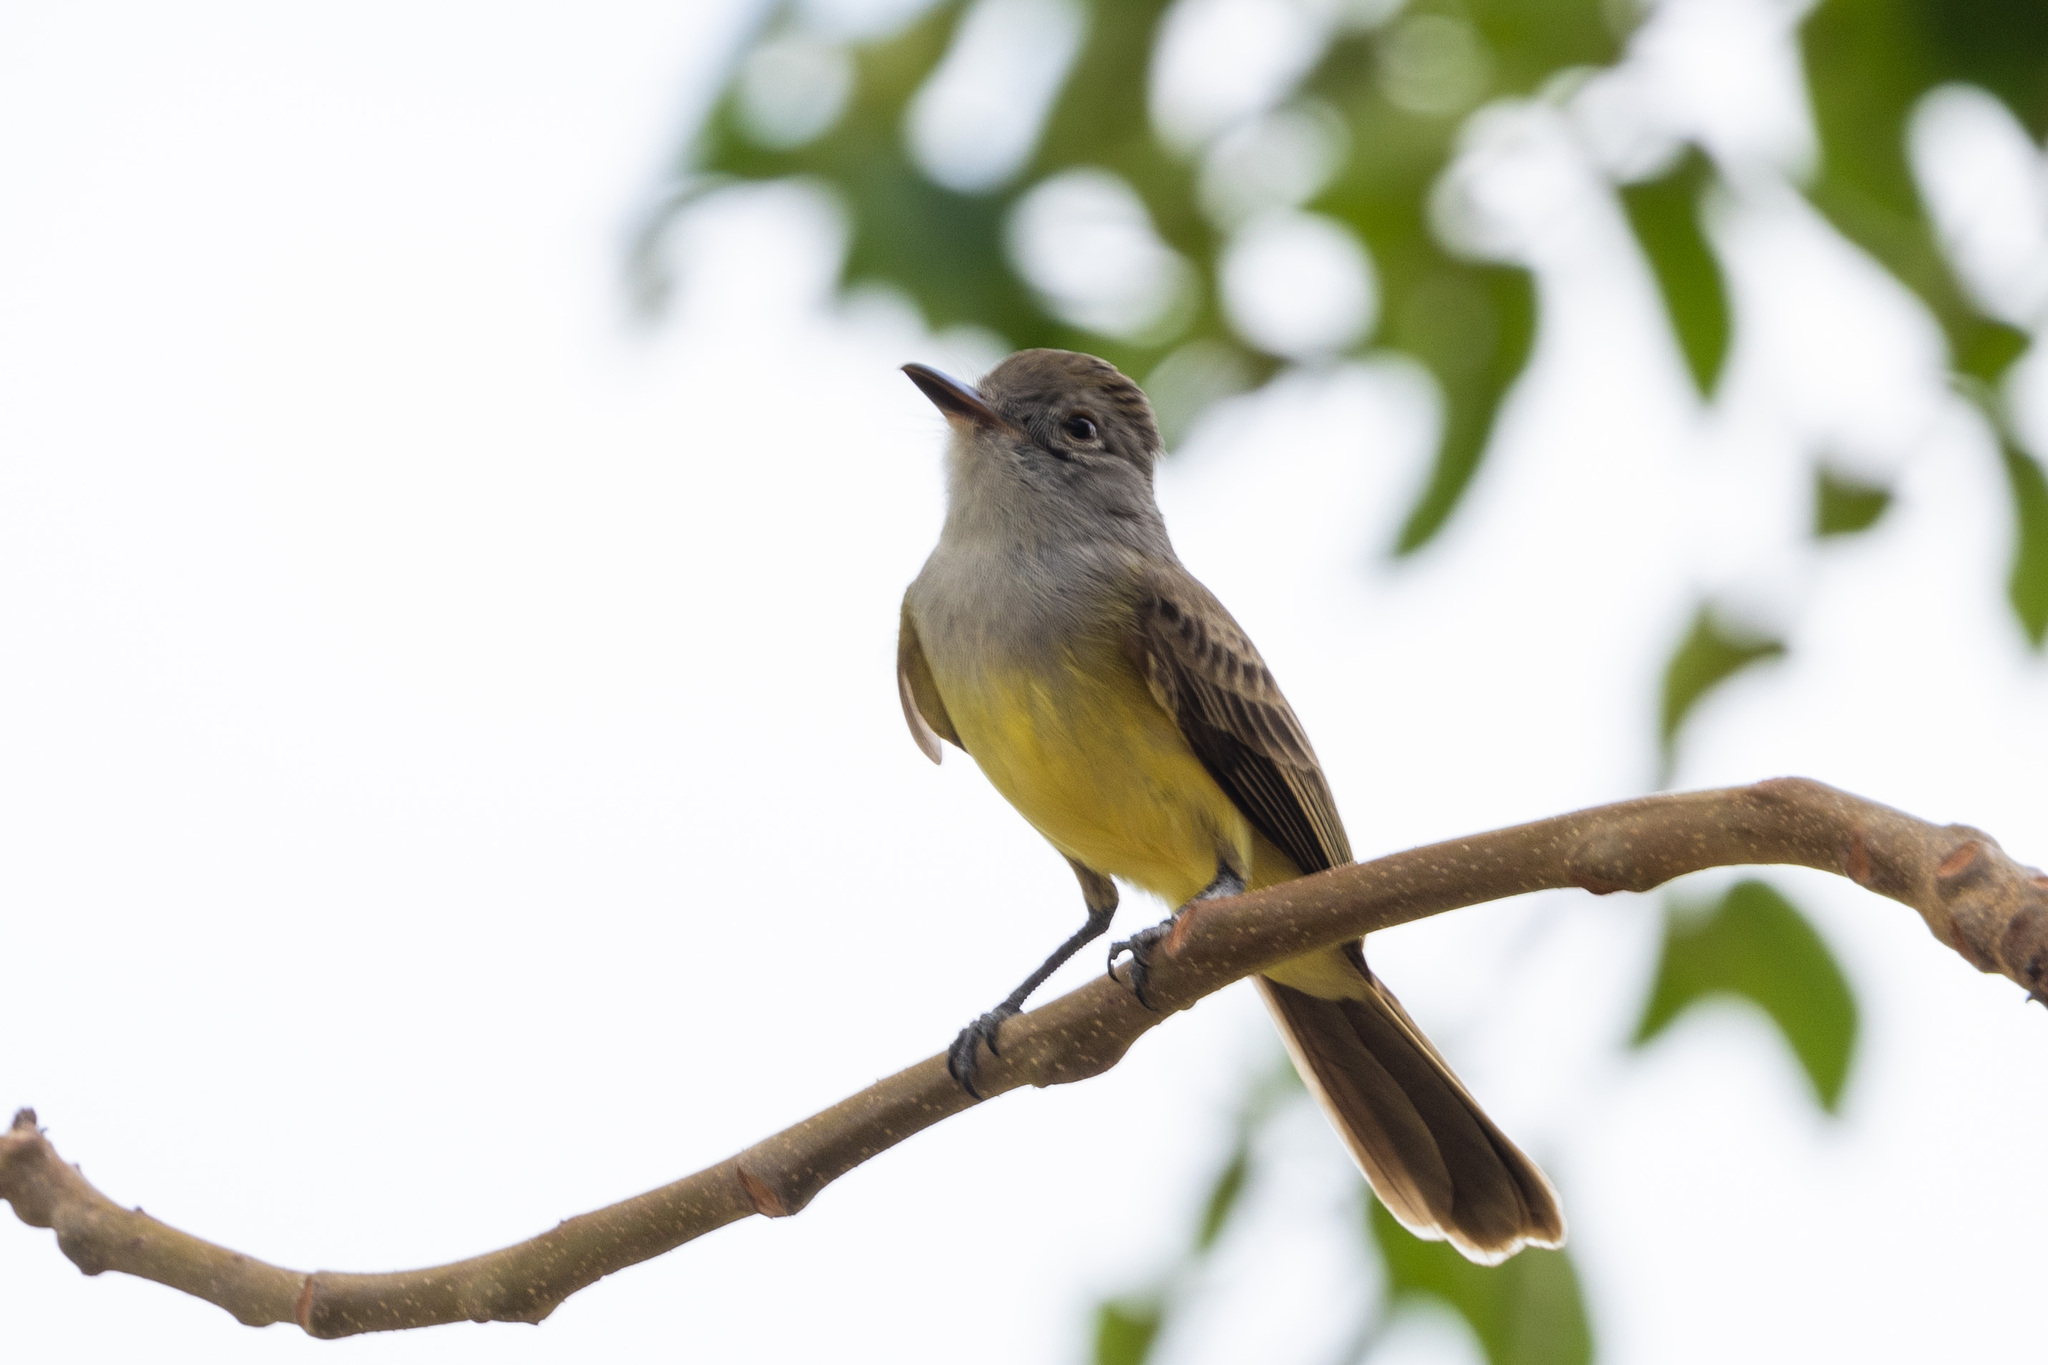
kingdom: Animalia
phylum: Chordata
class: Aves
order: Passeriformes
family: Tyrannidae
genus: Myiarchus
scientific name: Myiarchus panamensis
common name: Panama flycatcher
